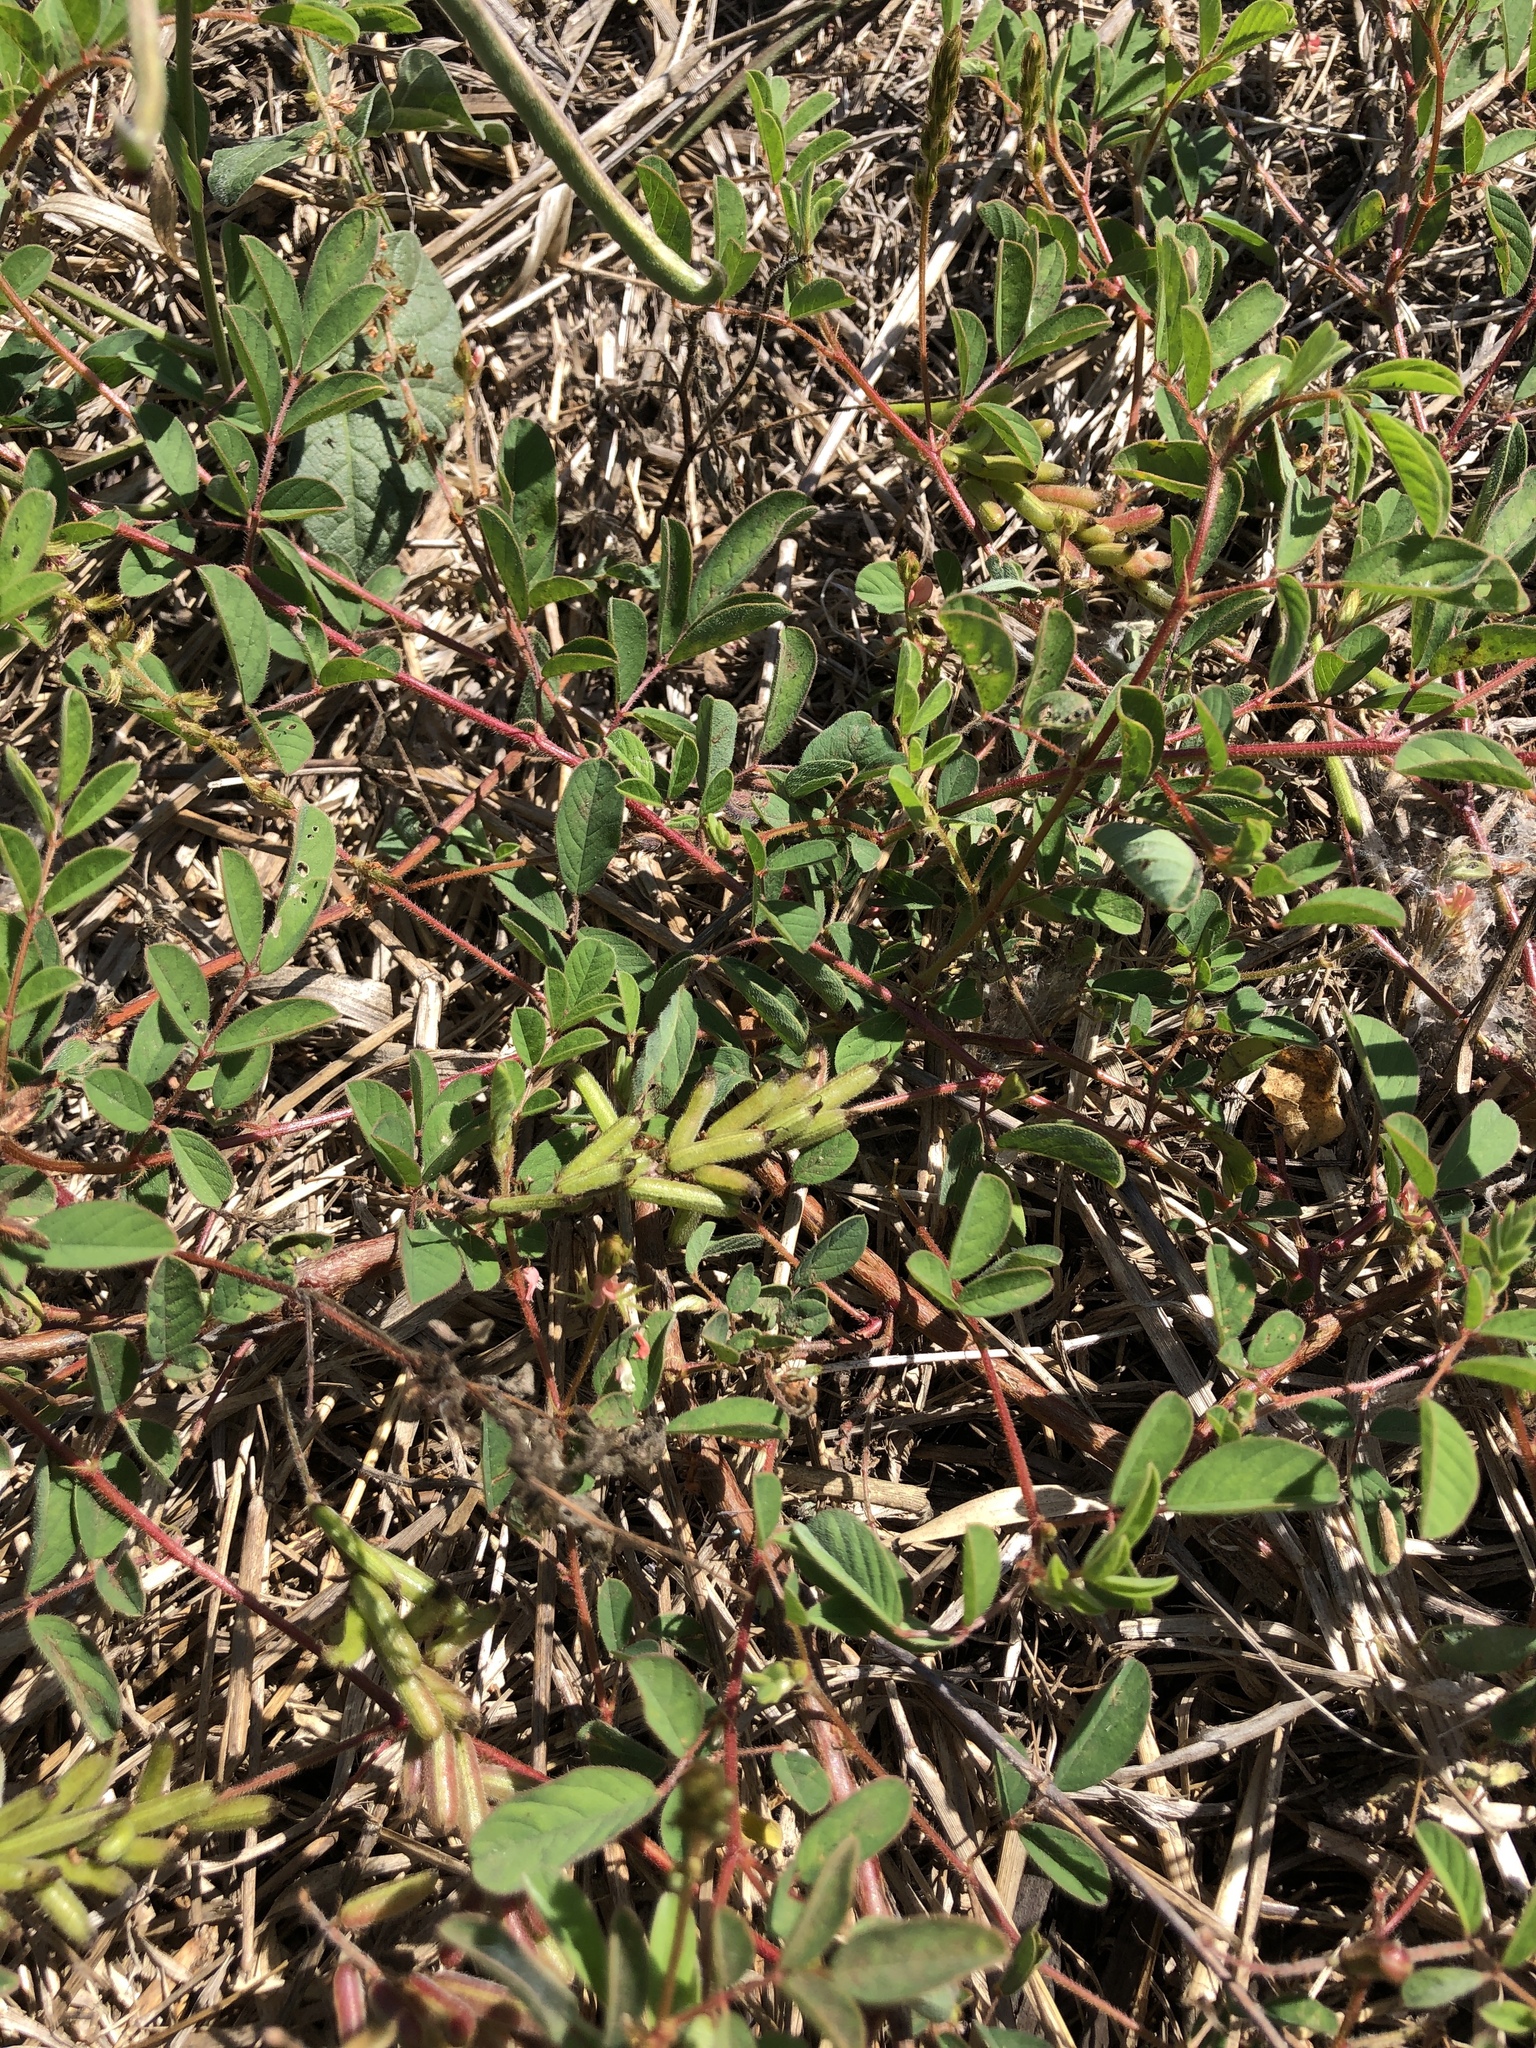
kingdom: Plantae
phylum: Tracheophyta
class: Magnoliopsida
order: Fabales
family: Fabaceae
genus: Indigofera
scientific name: Indigofera hirsuta
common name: Hairy indigo
